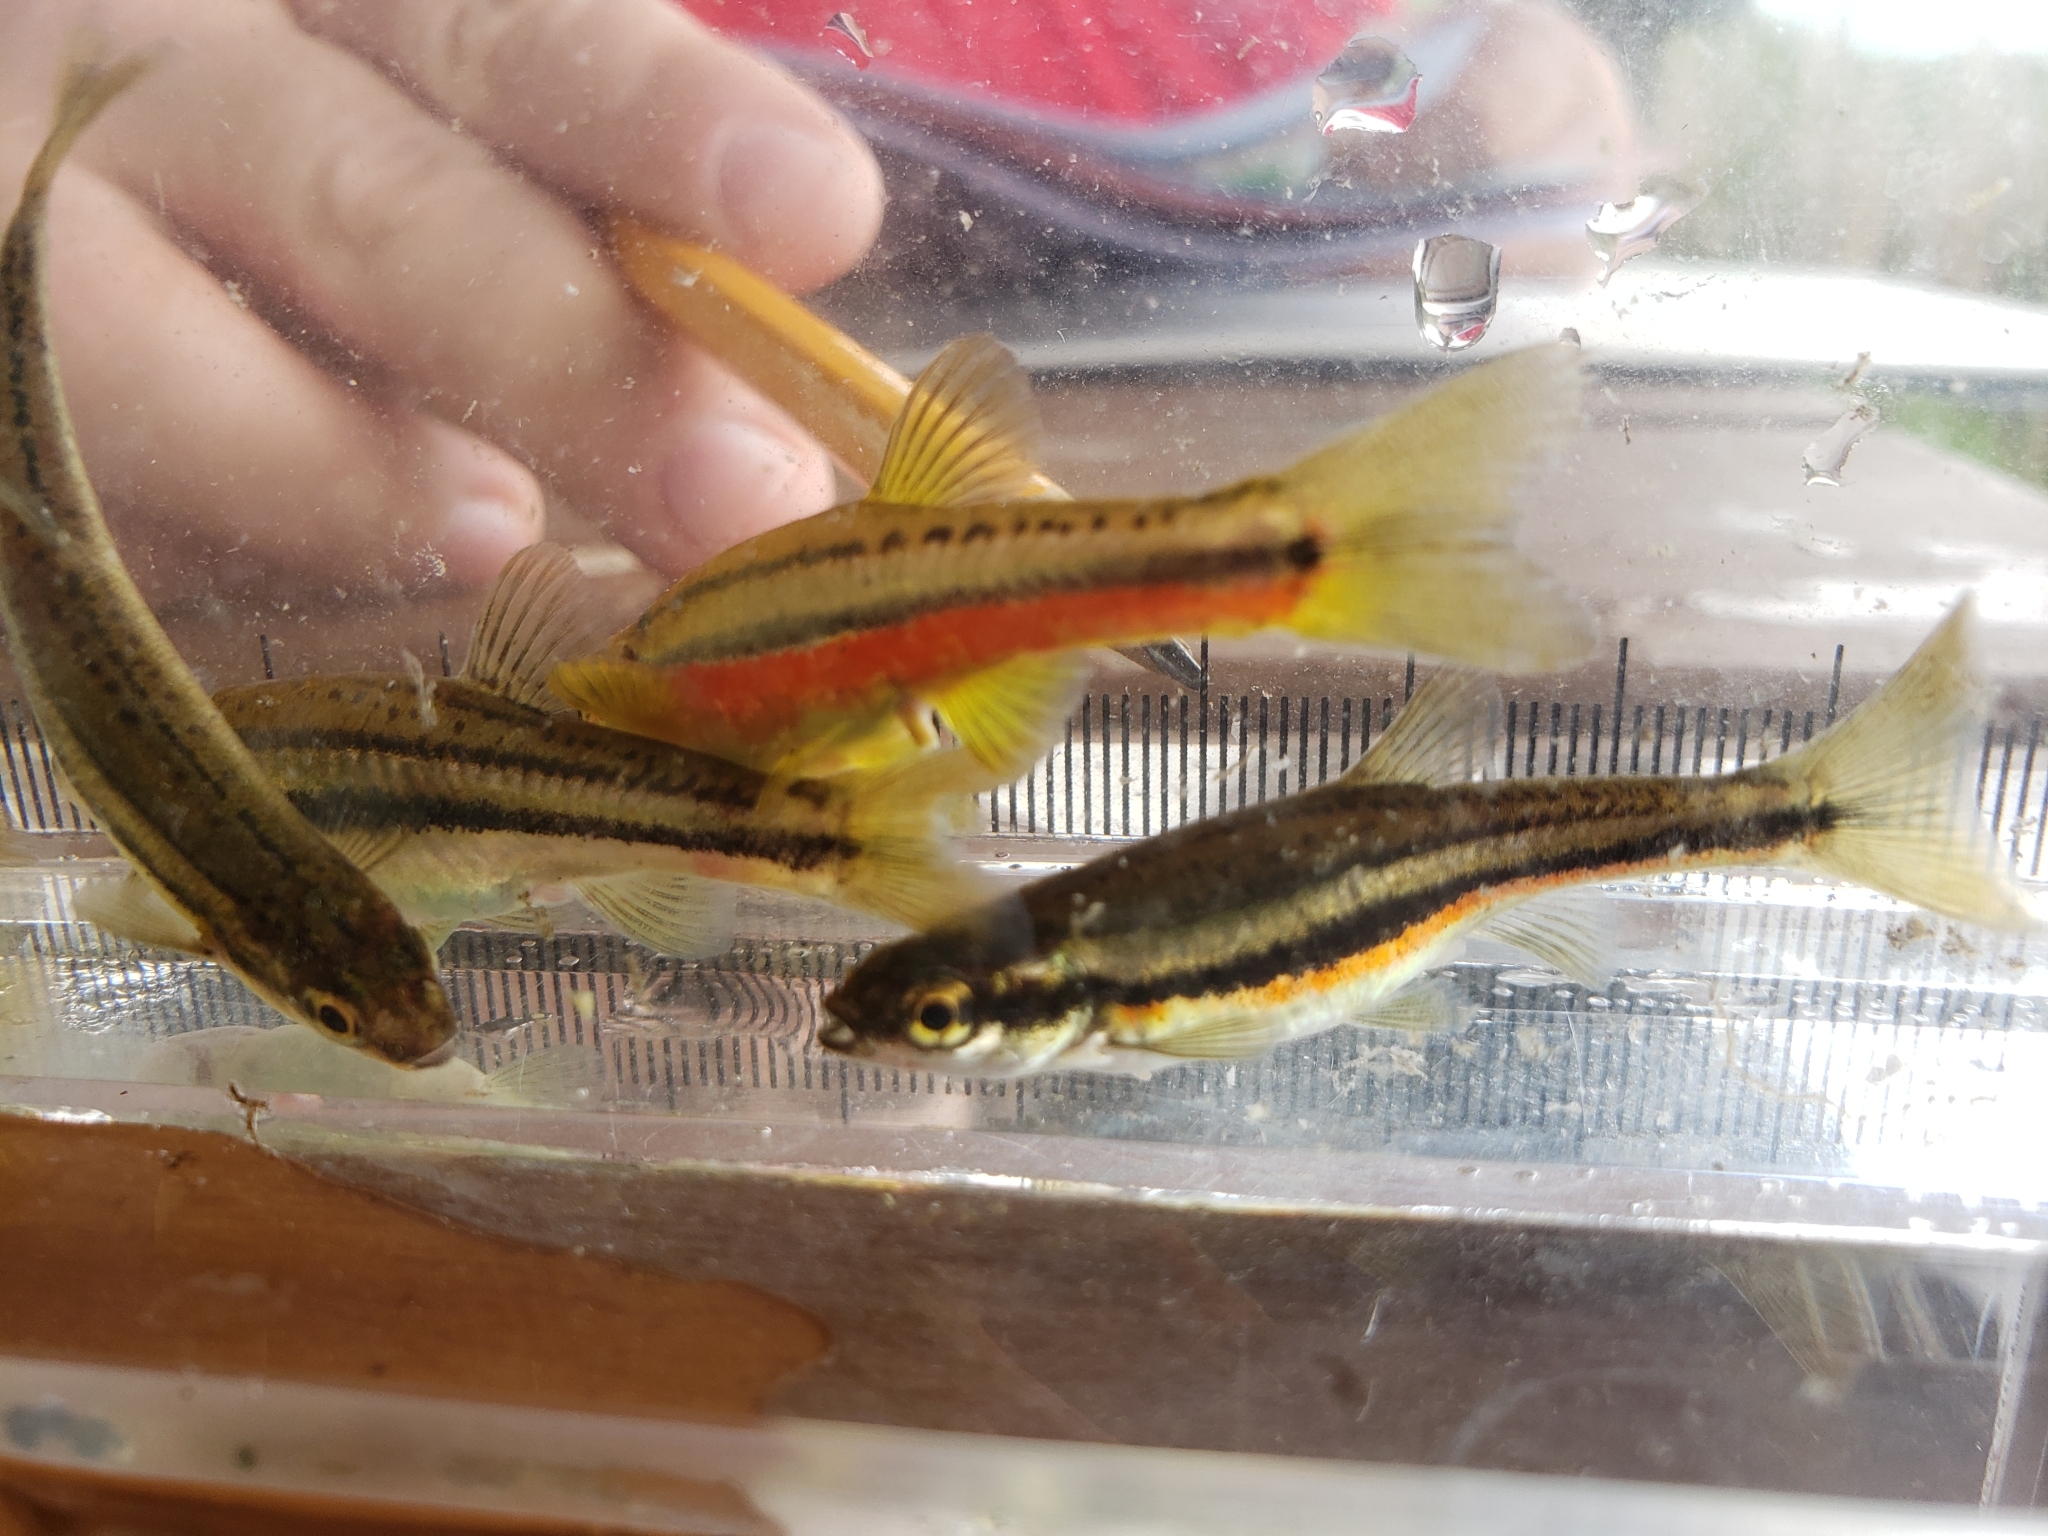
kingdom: Animalia
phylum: Chordata
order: Cypriniformes
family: Cyprinidae
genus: Chrosomus
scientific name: Chrosomus eos
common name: Northern redbelly dace
